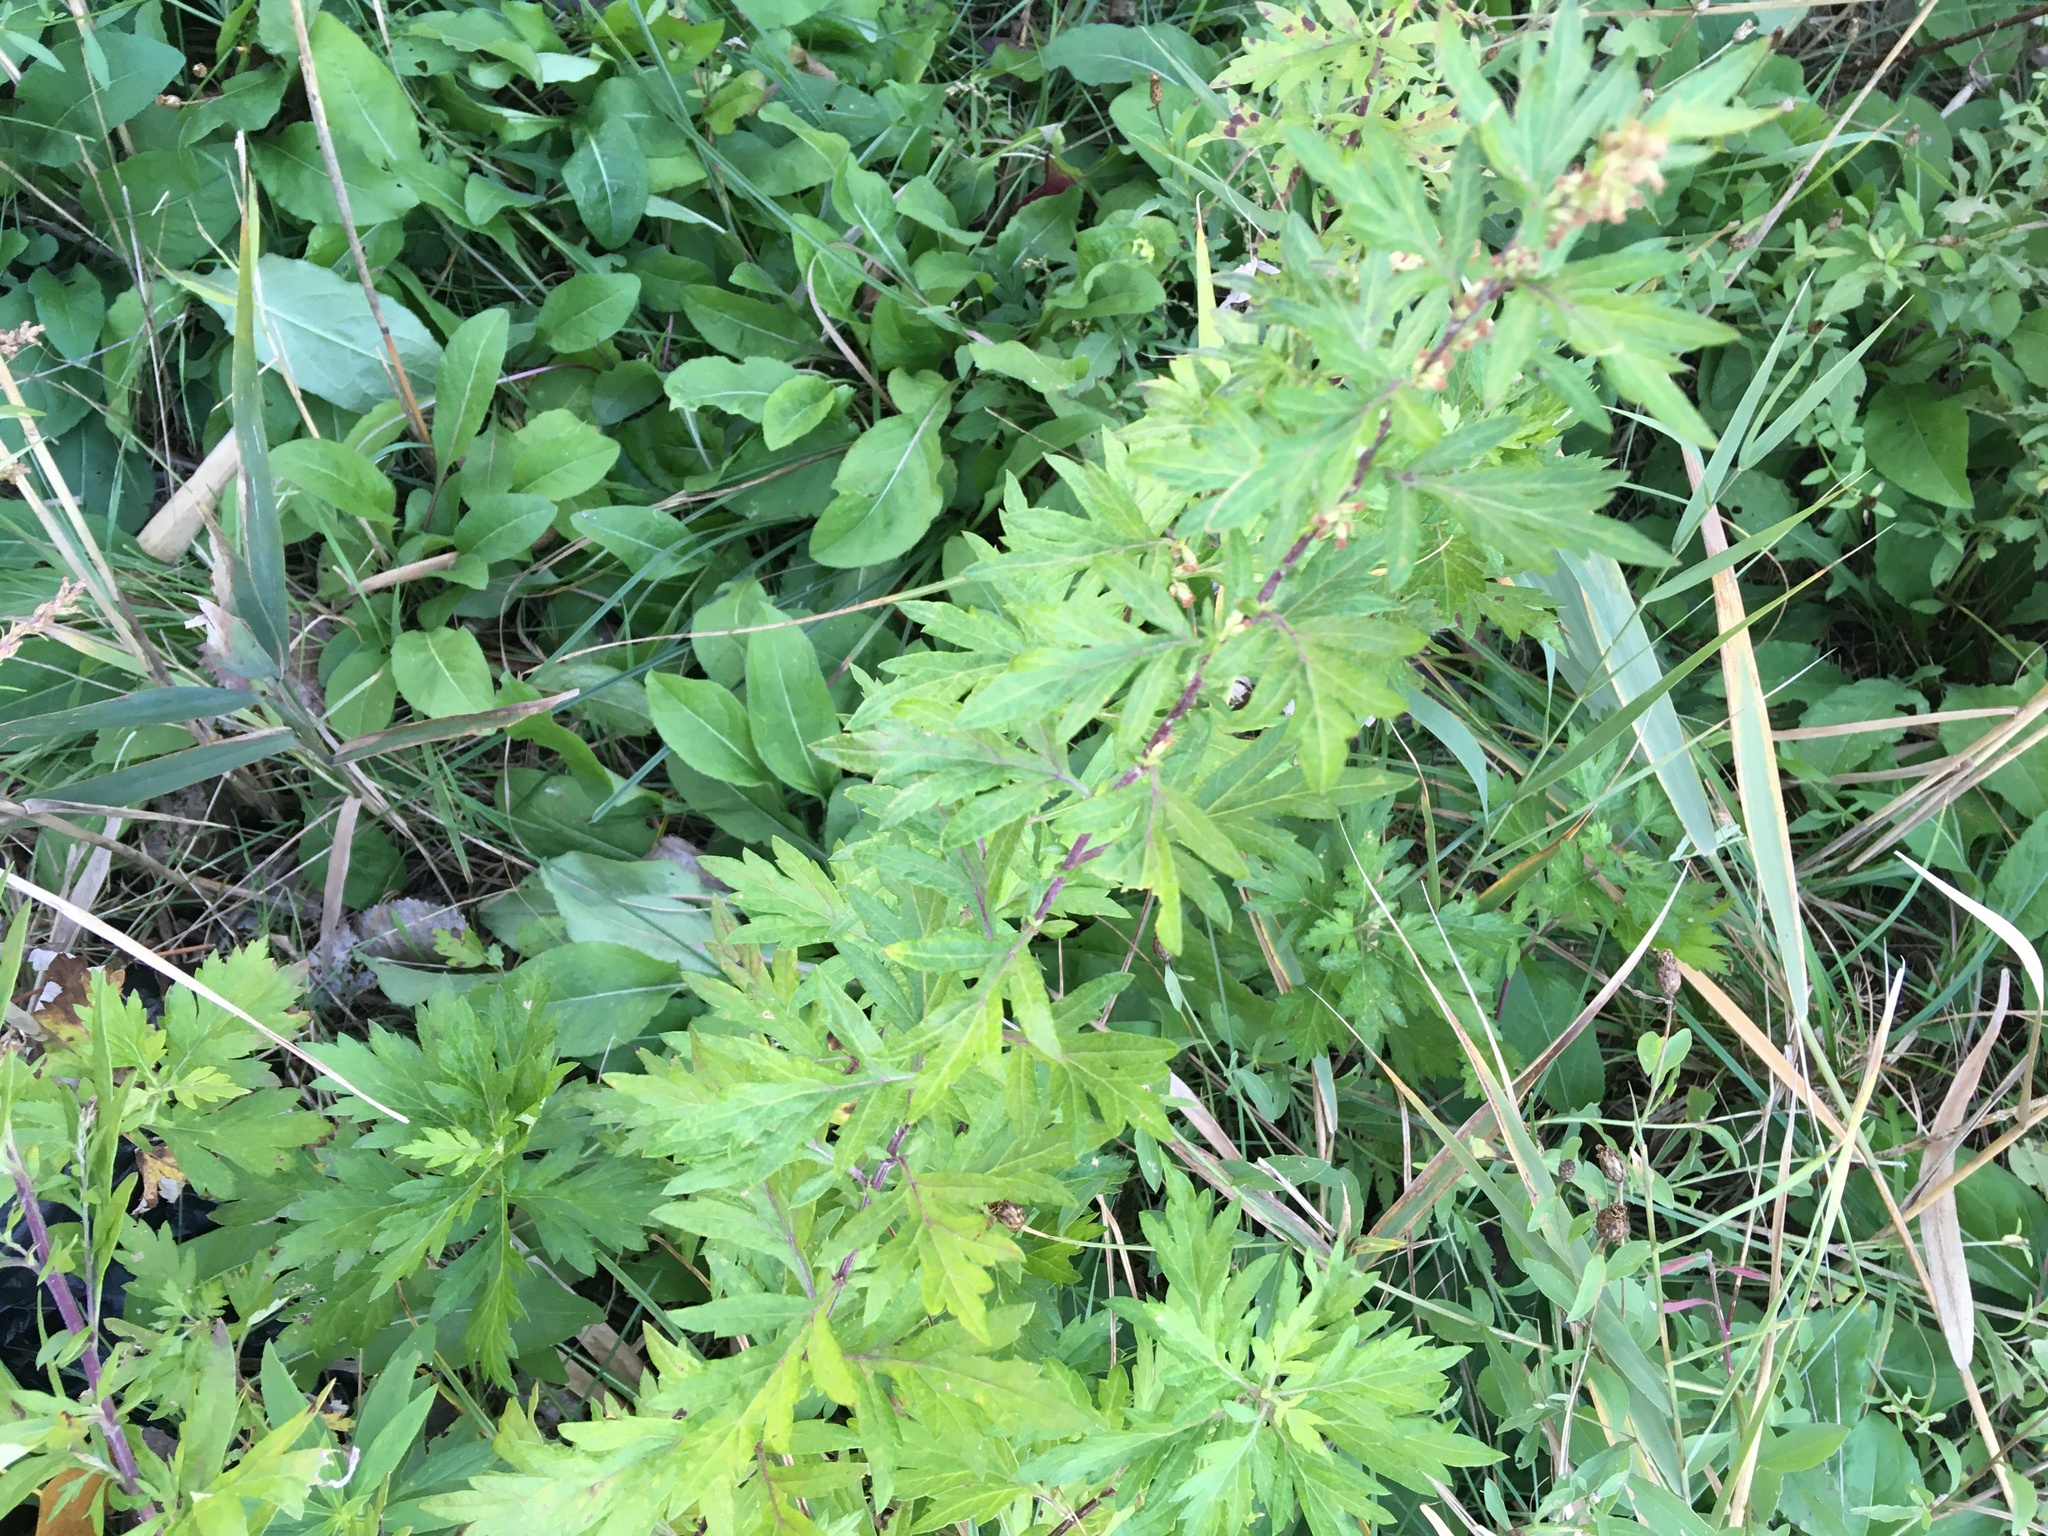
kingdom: Plantae
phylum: Tracheophyta
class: Magnoliopsida
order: Asterales
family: Asteraceae
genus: Artemisia
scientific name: Artemisia vulgaris
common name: Mugwort
